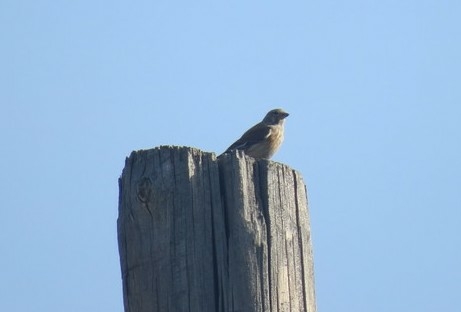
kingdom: Animalia
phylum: Chordata
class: Aves
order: Passeriformes
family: Fringillidae
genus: Linaria
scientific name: Linaria cannabina
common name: Common linnet
